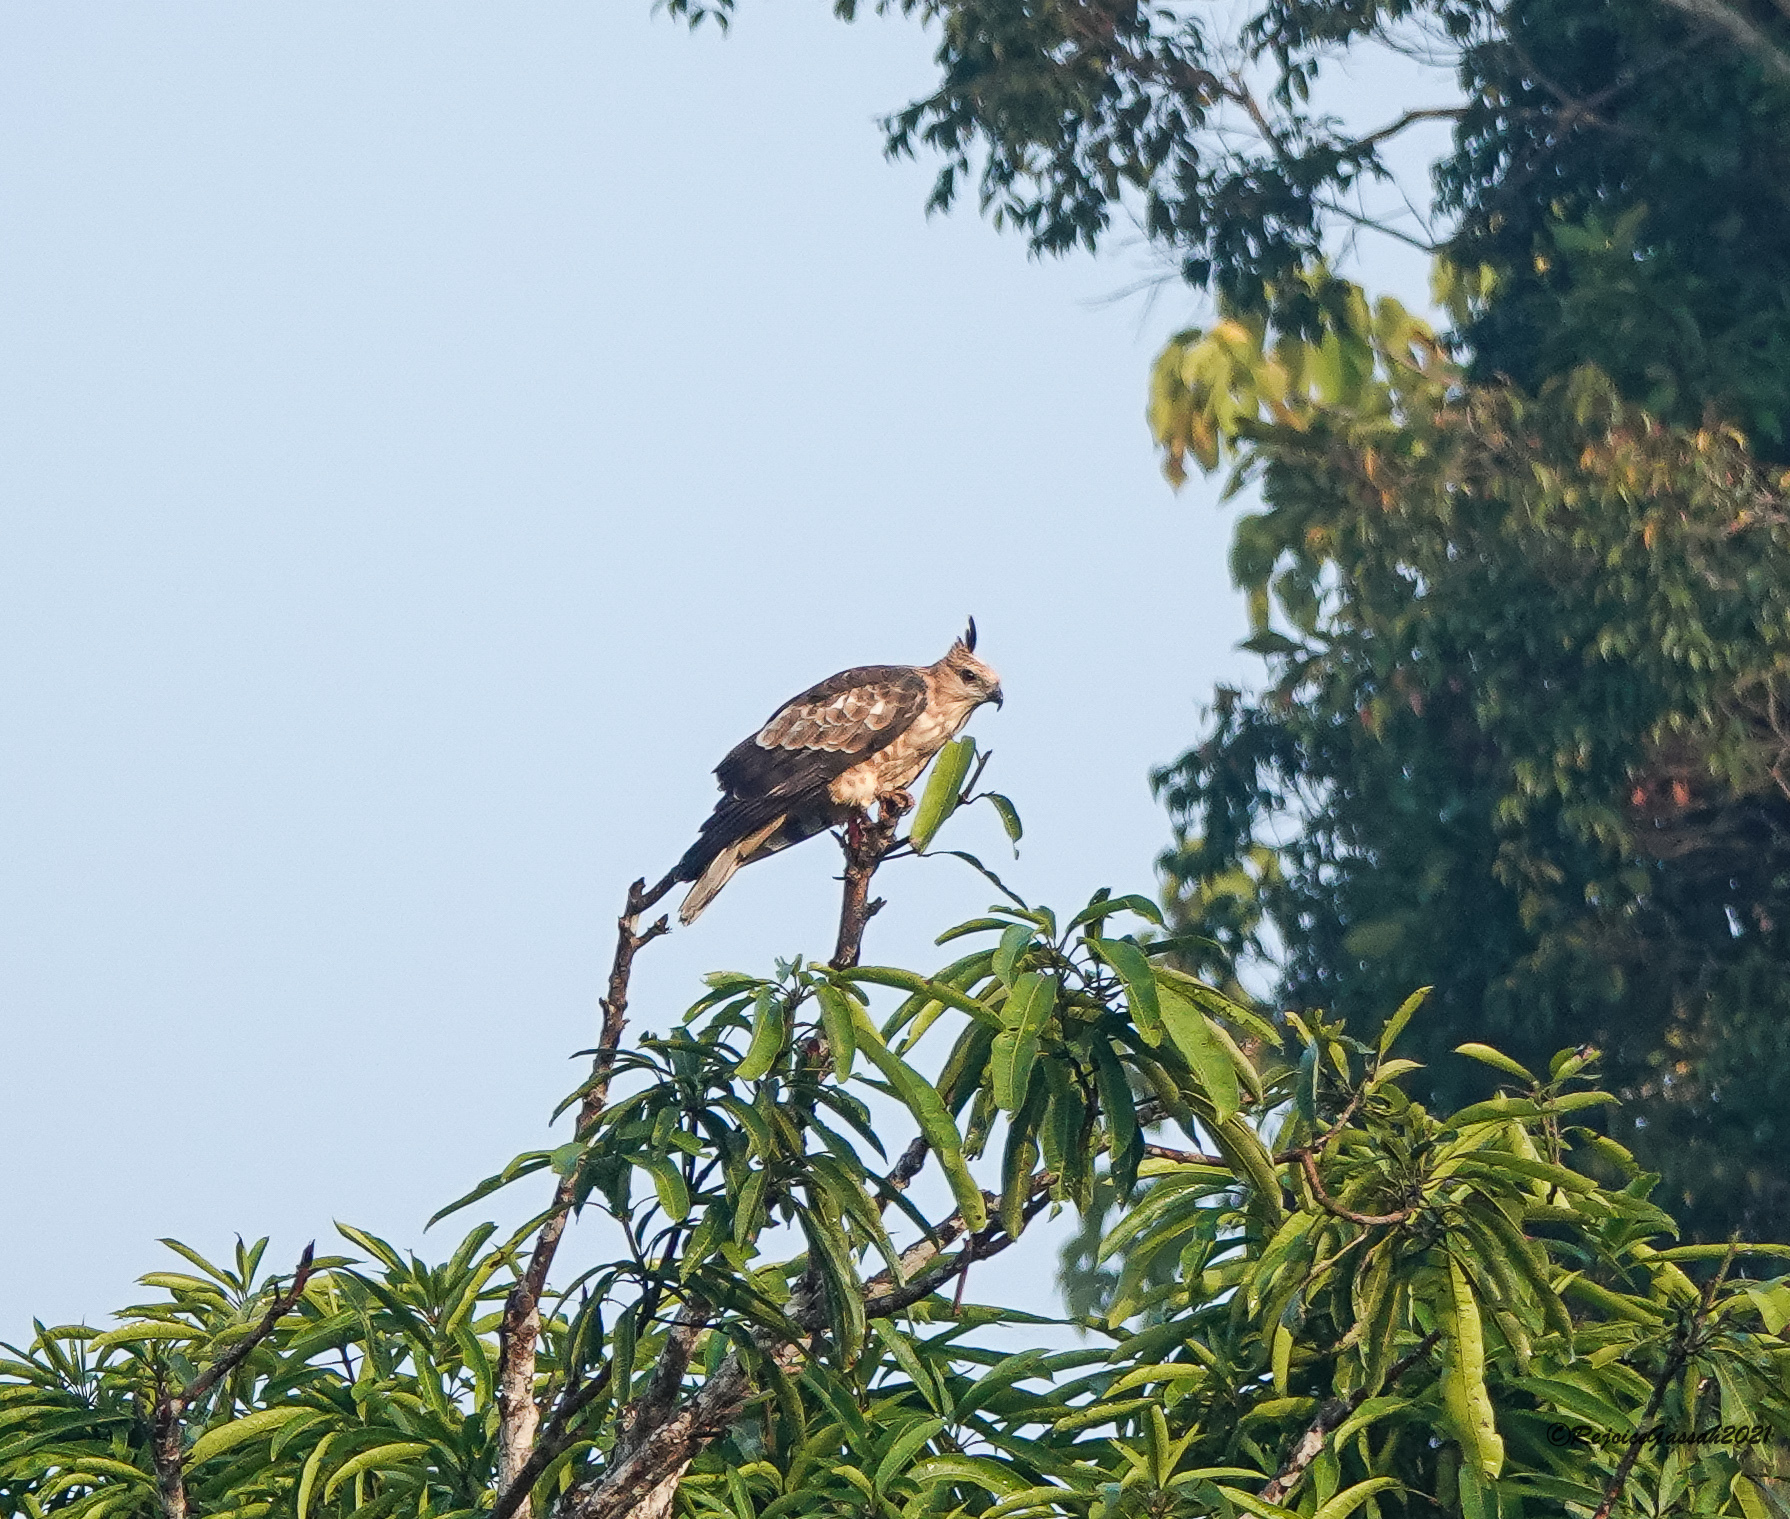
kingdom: Animalia
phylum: Chordata
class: Aves
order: Accipitriformes
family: Accipitridae
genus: Aviceda
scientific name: Aviceda jerdoni
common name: Jerdon's baza
